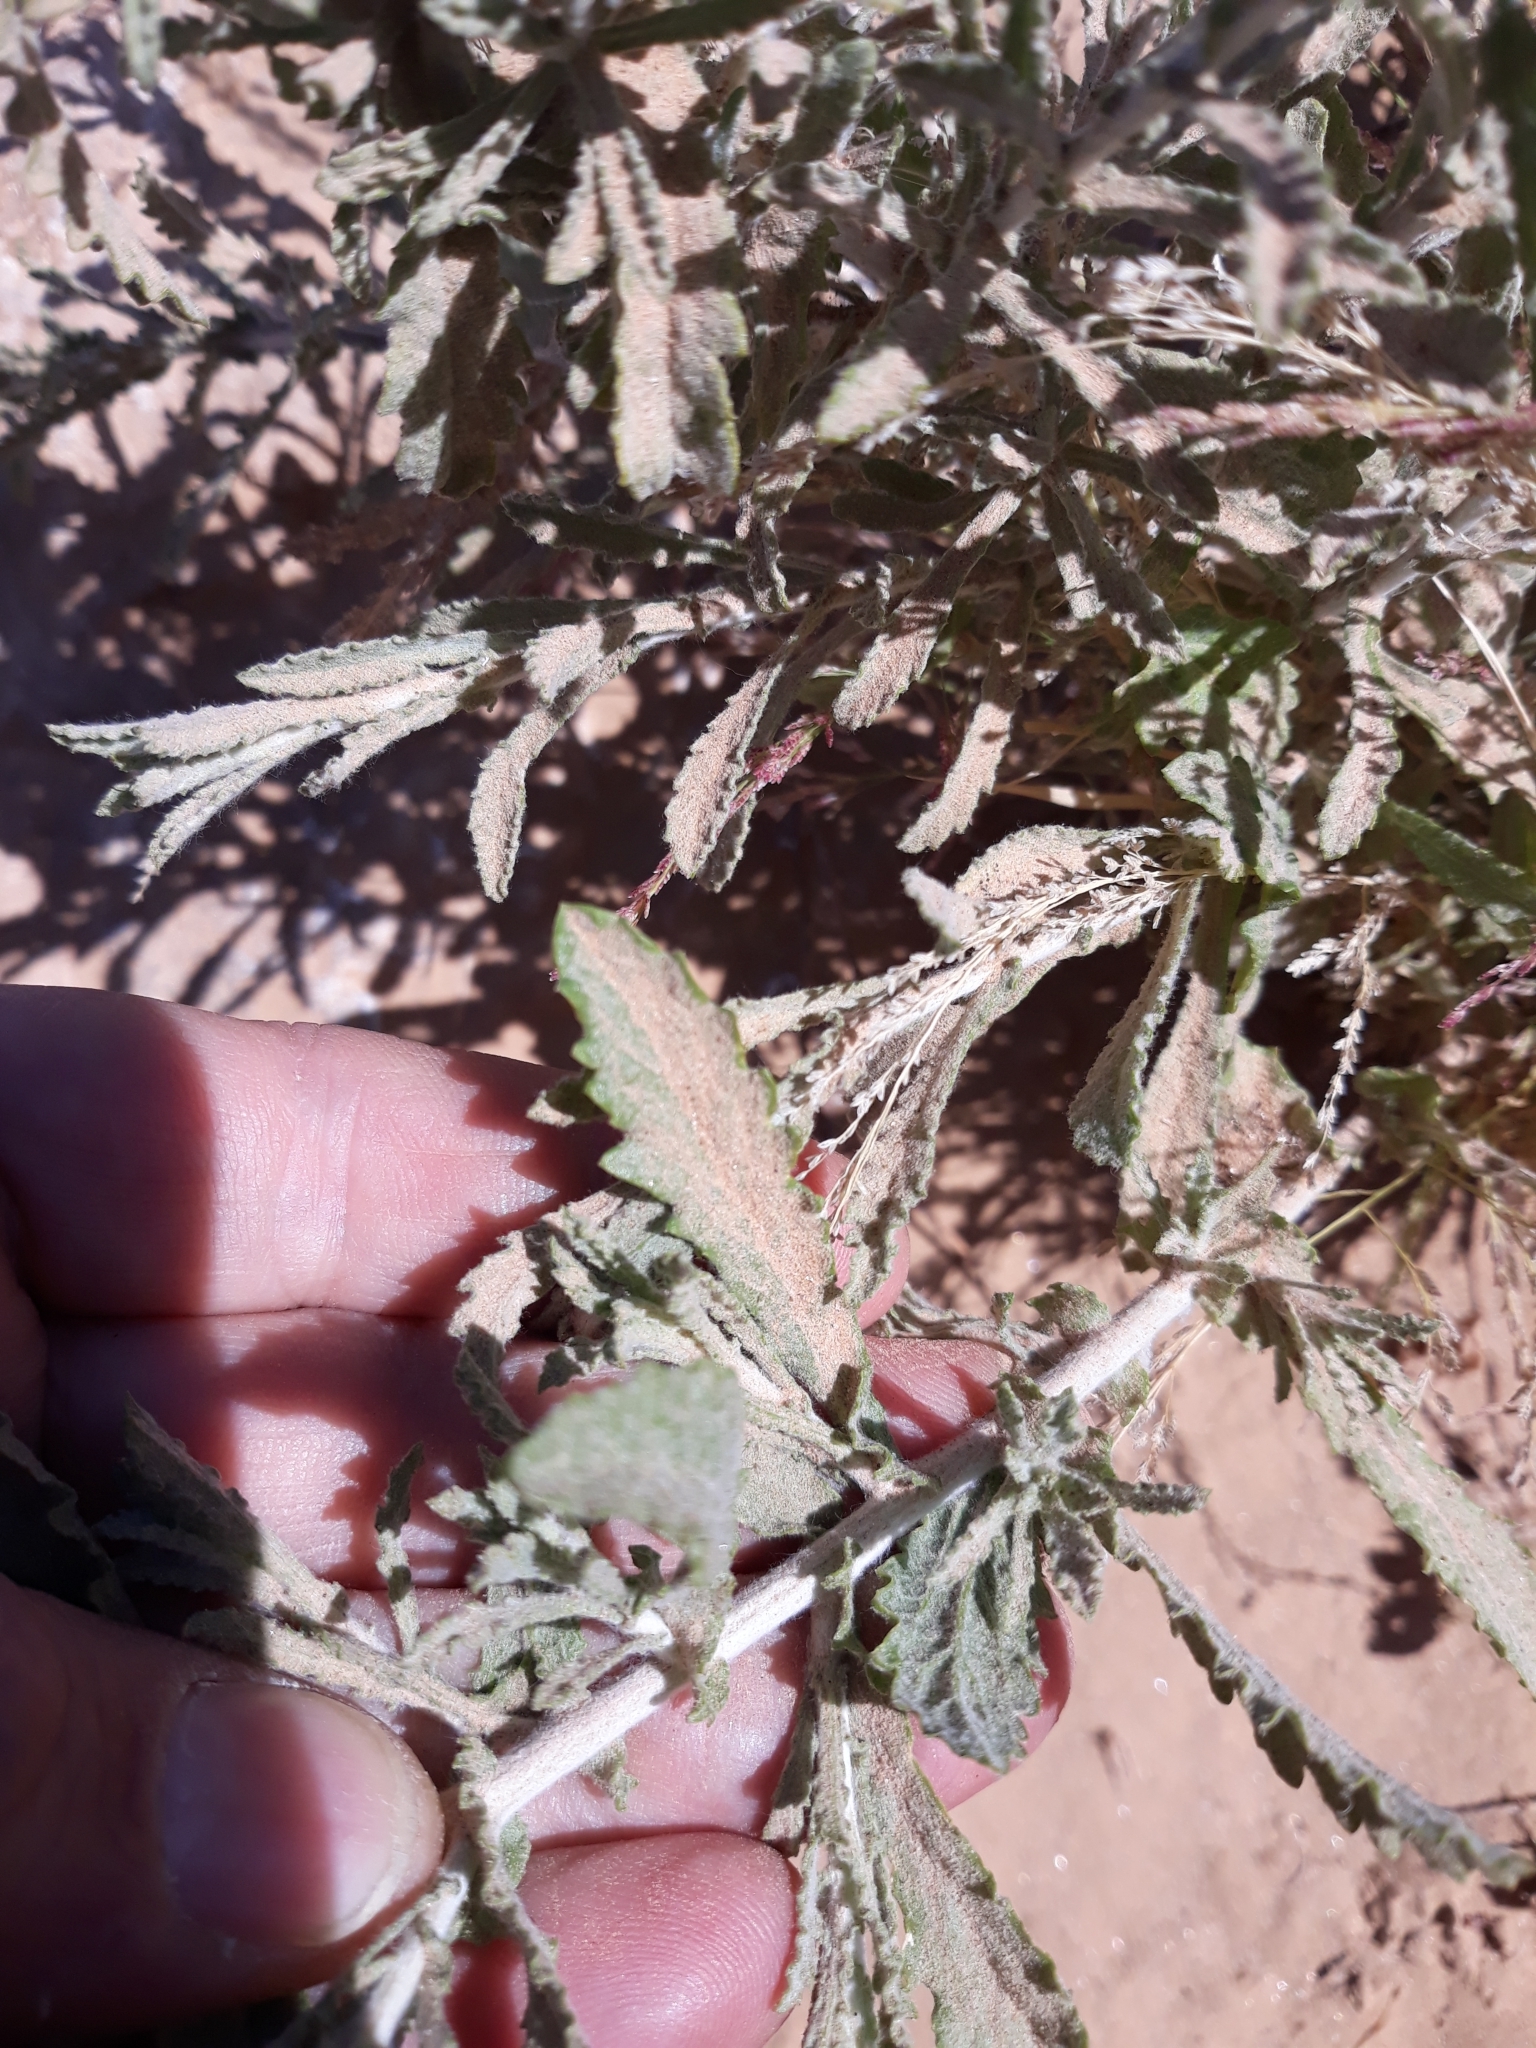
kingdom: Plantae
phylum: Tracheophyta
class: Magnoliopsida
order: Asterales
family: Asteraceae
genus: Pulicaria
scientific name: Pulicaria undulata
